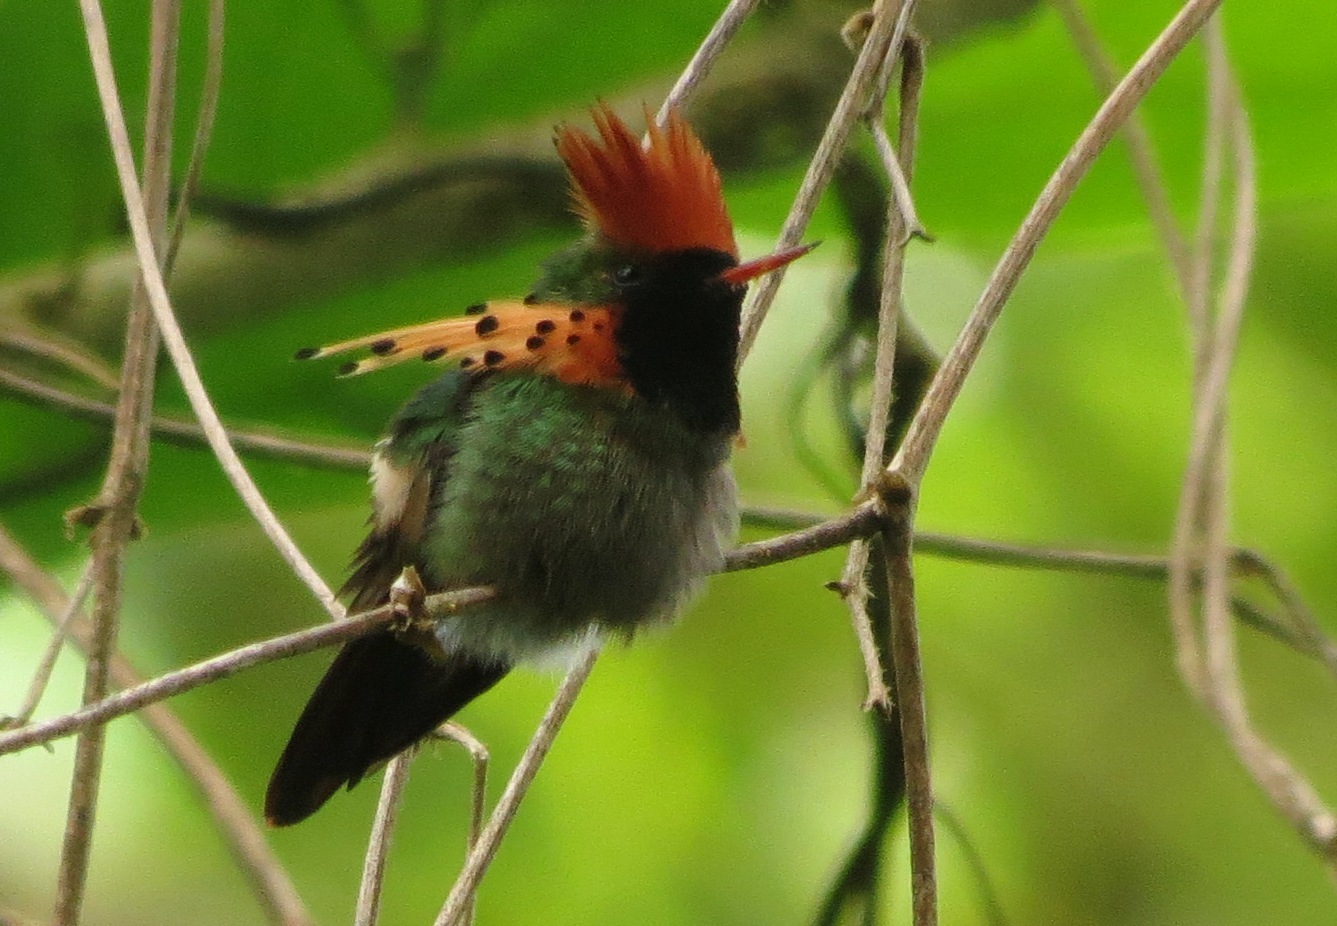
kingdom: Animalia
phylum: Chordata
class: Aves
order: Apodiformes
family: Trochilidae
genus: Lophornis
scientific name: Lophornis ornatus
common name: Tufted coquette
